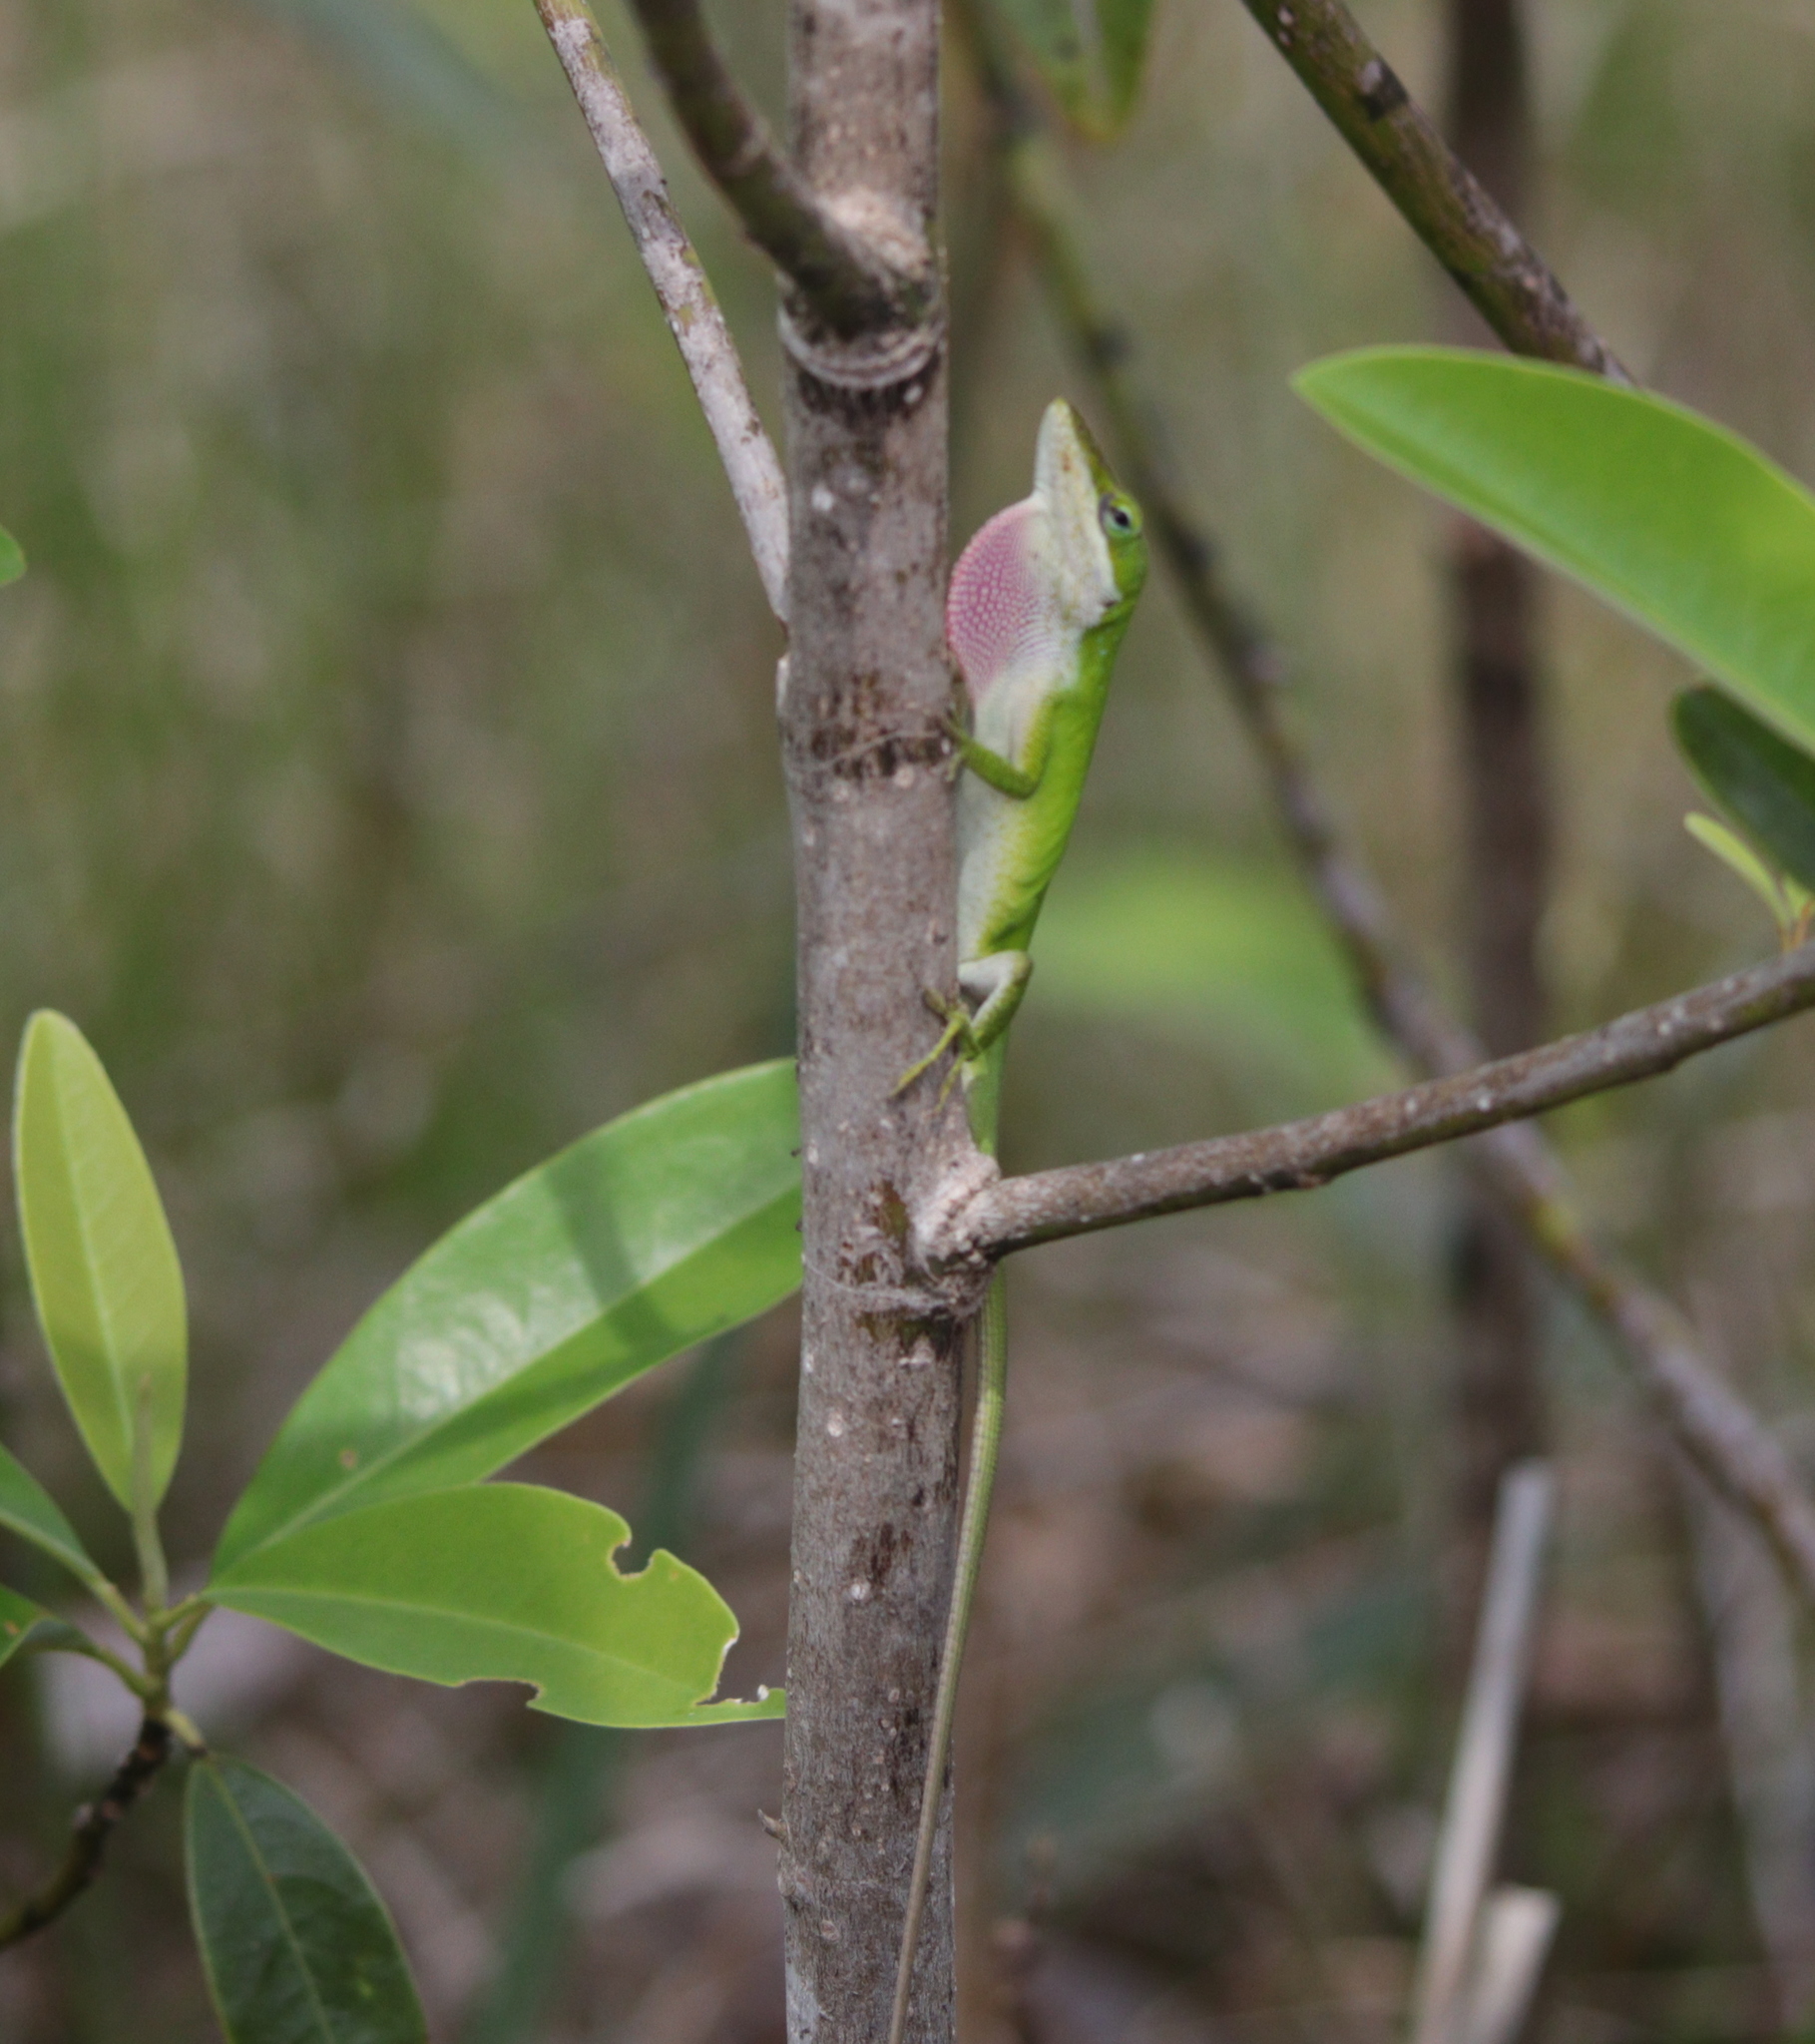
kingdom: Animalia
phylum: Chordata
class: Squamata
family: Dactyloidae
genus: Anolis
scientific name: Anolis carolinensis
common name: Green anole
